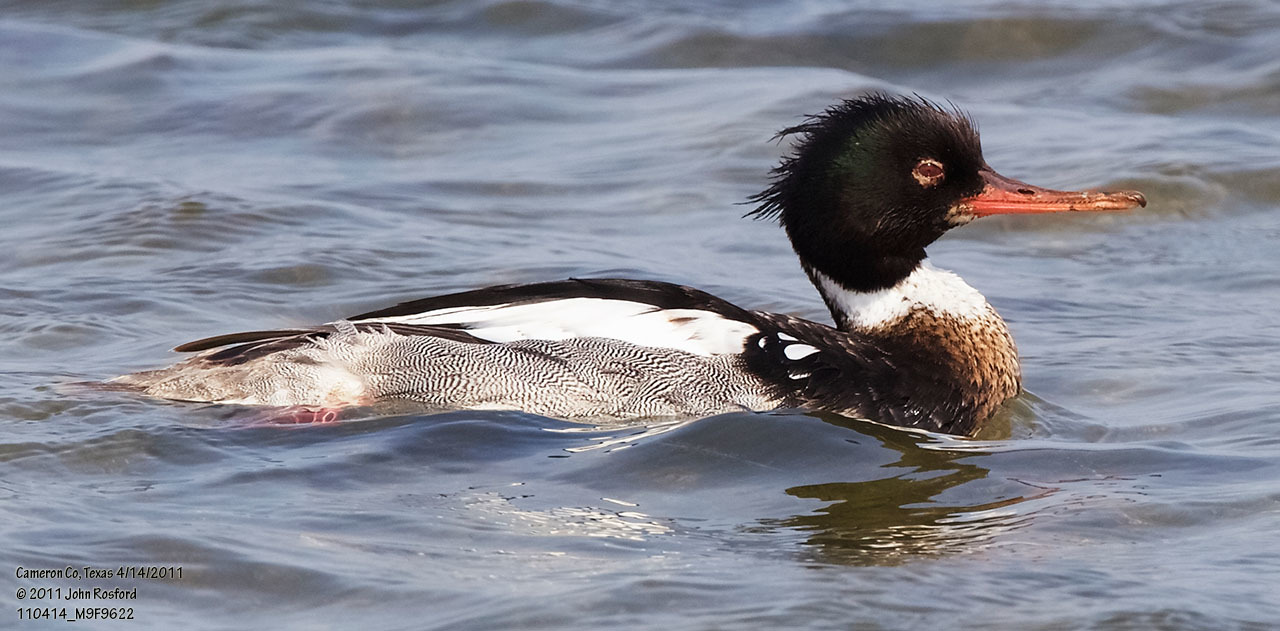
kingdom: Animalia
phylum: Chordata
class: Aves
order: Anseriformes
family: Anatidae
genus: Mergus
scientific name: Mergus serrator
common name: Red-breasted merganser
